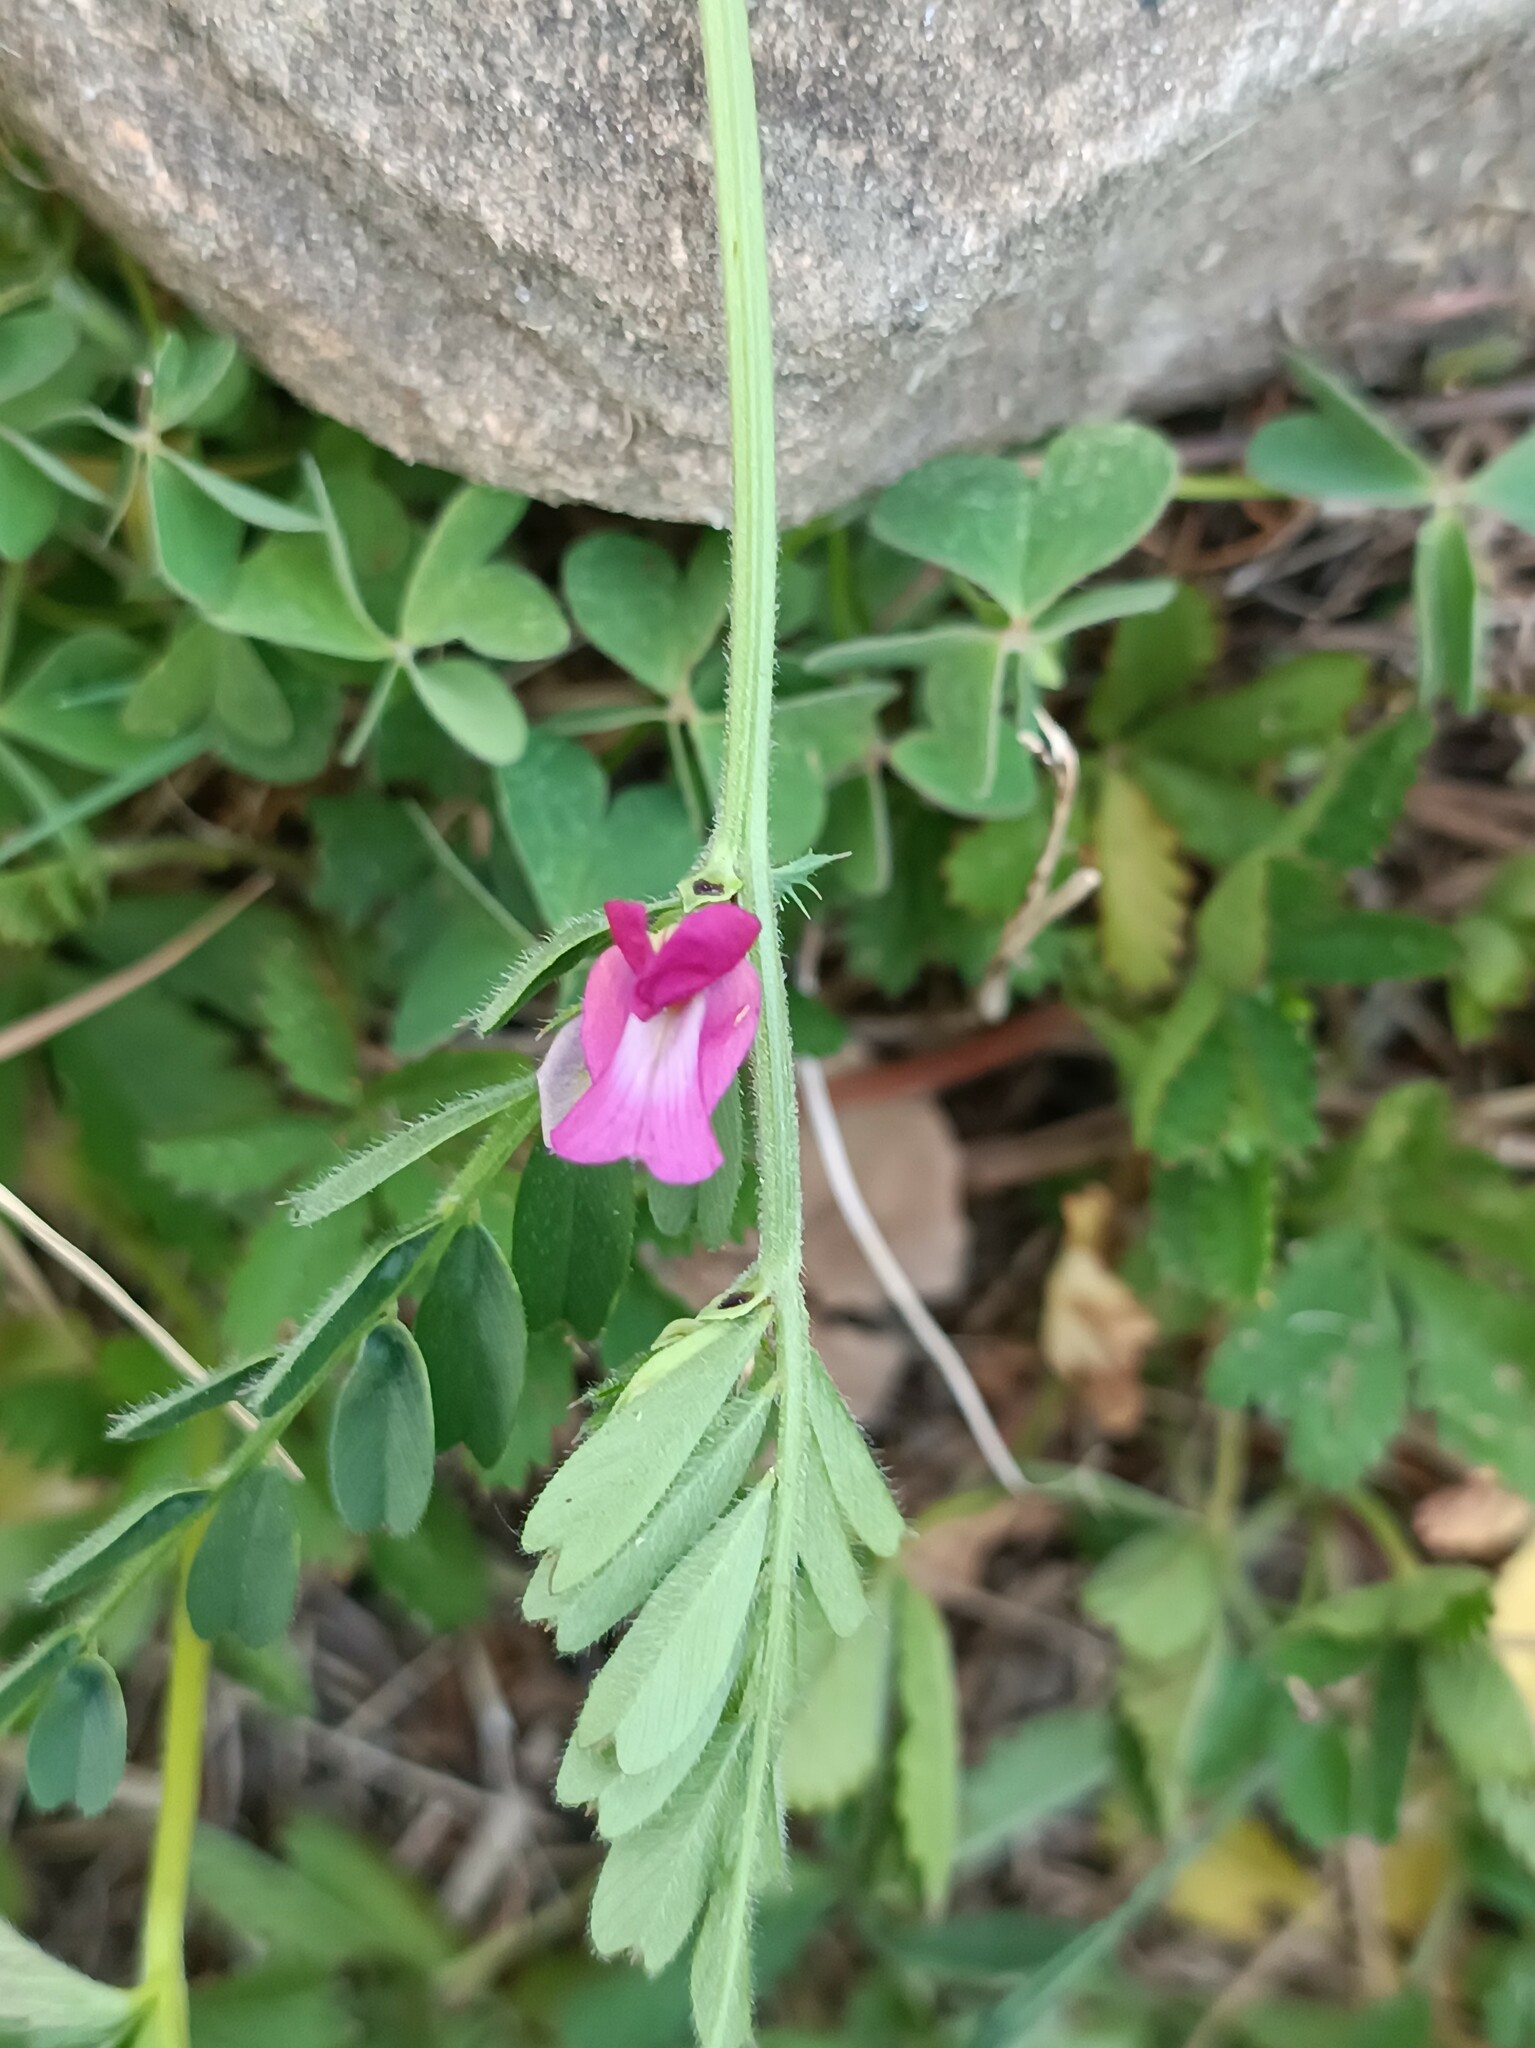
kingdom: Plantae
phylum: Tracheophyta
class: Magnoliopsida
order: Fabales
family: Fabaceae
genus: Vicia
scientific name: Vicia sativa
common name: Garden vetch
